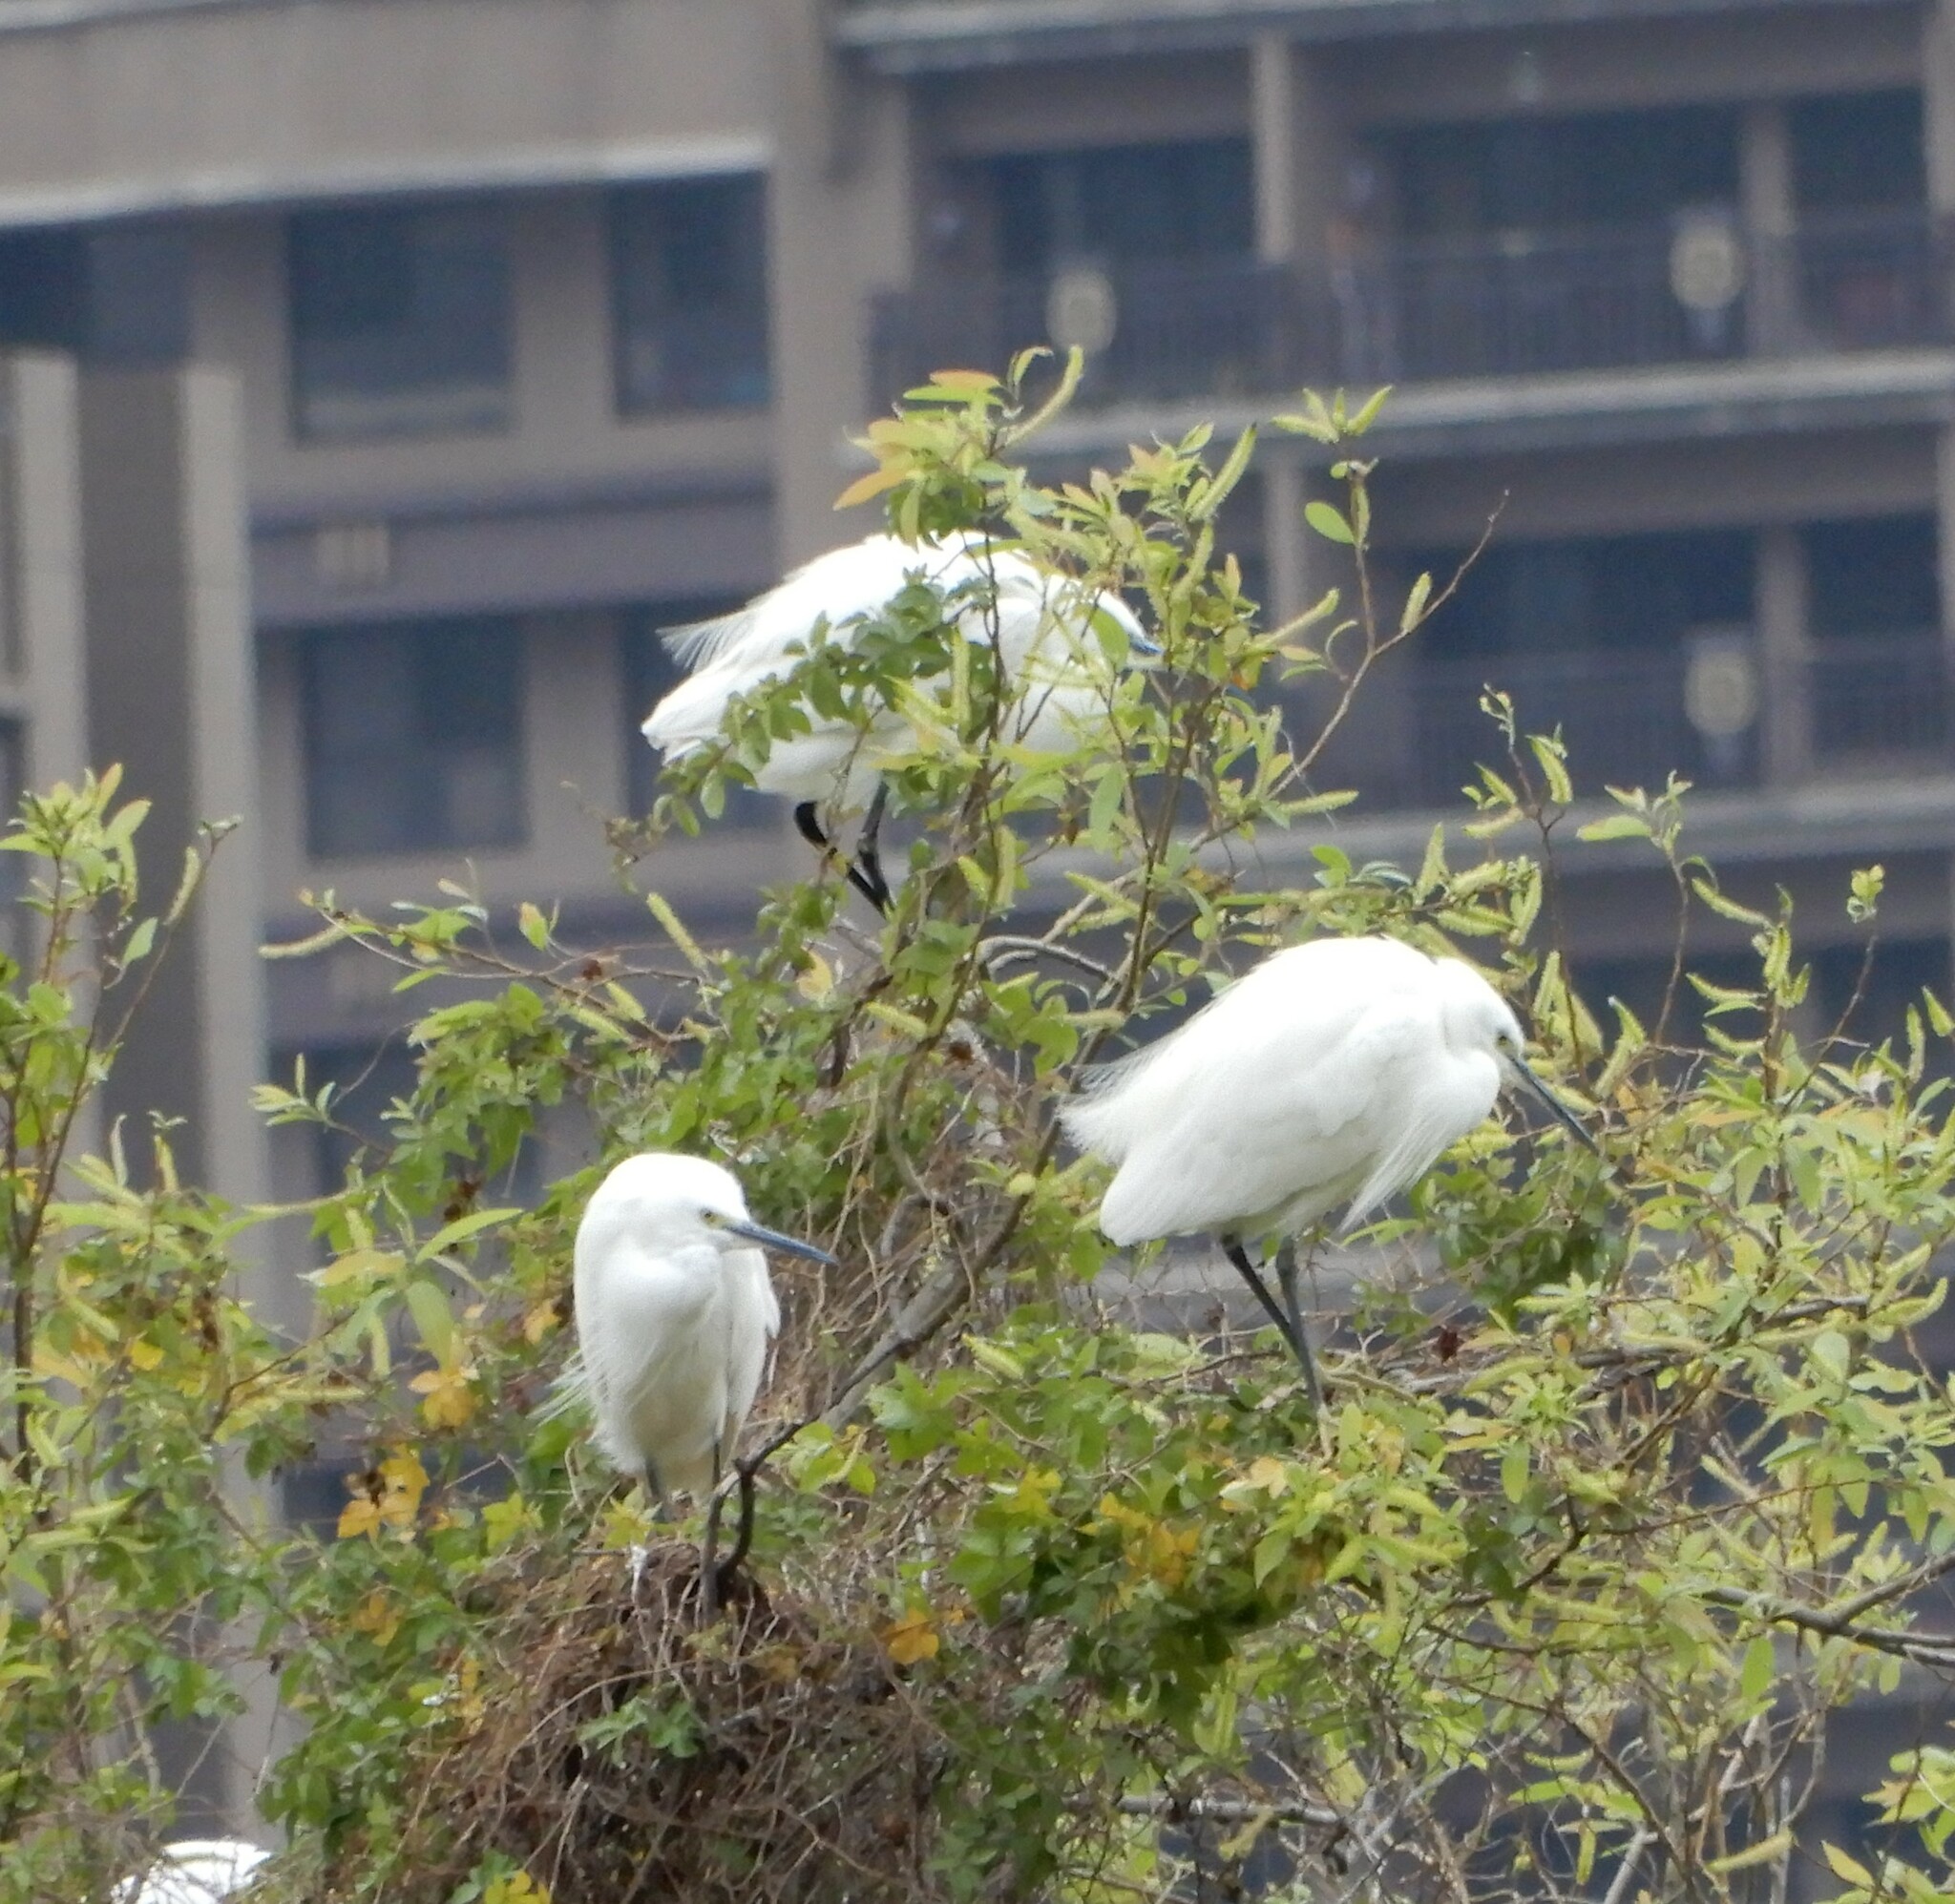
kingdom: Animalia
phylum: Chordata
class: Aves
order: Pelecaniformes
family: Ardeidae
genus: Egretta
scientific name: Egretta garzetta
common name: Little egret
